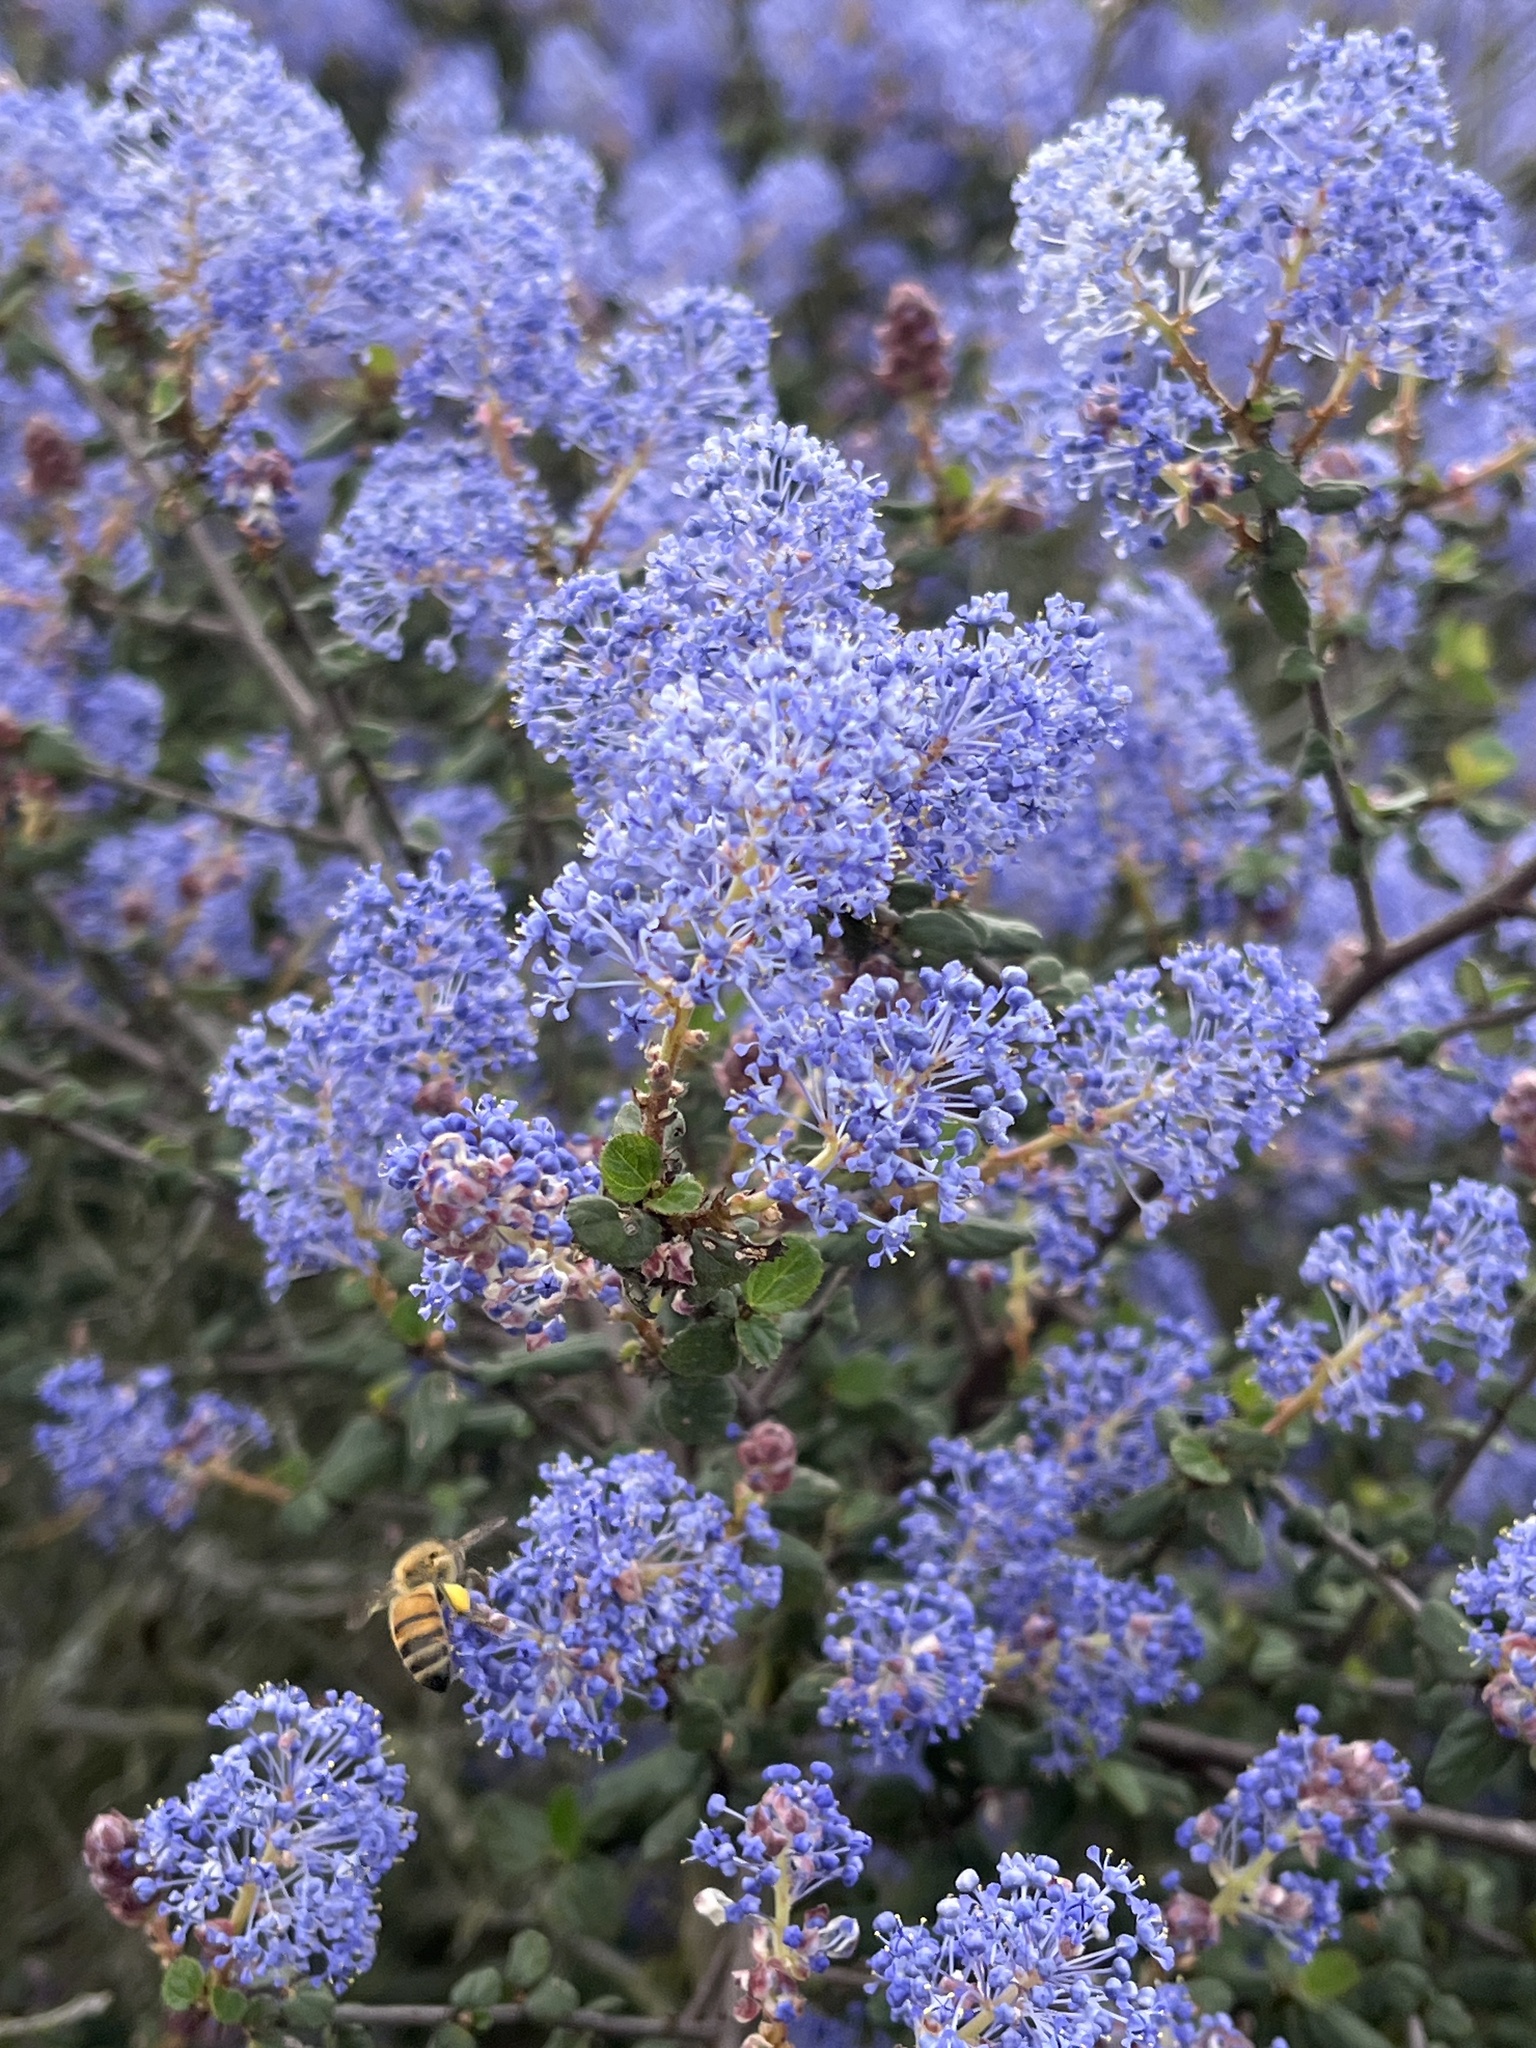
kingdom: Plantae
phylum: Tracheophyta
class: Magnoliopsida
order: Rosales
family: Rhamnaceae
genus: Ceanothus
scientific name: Ceanothus tomentosus
